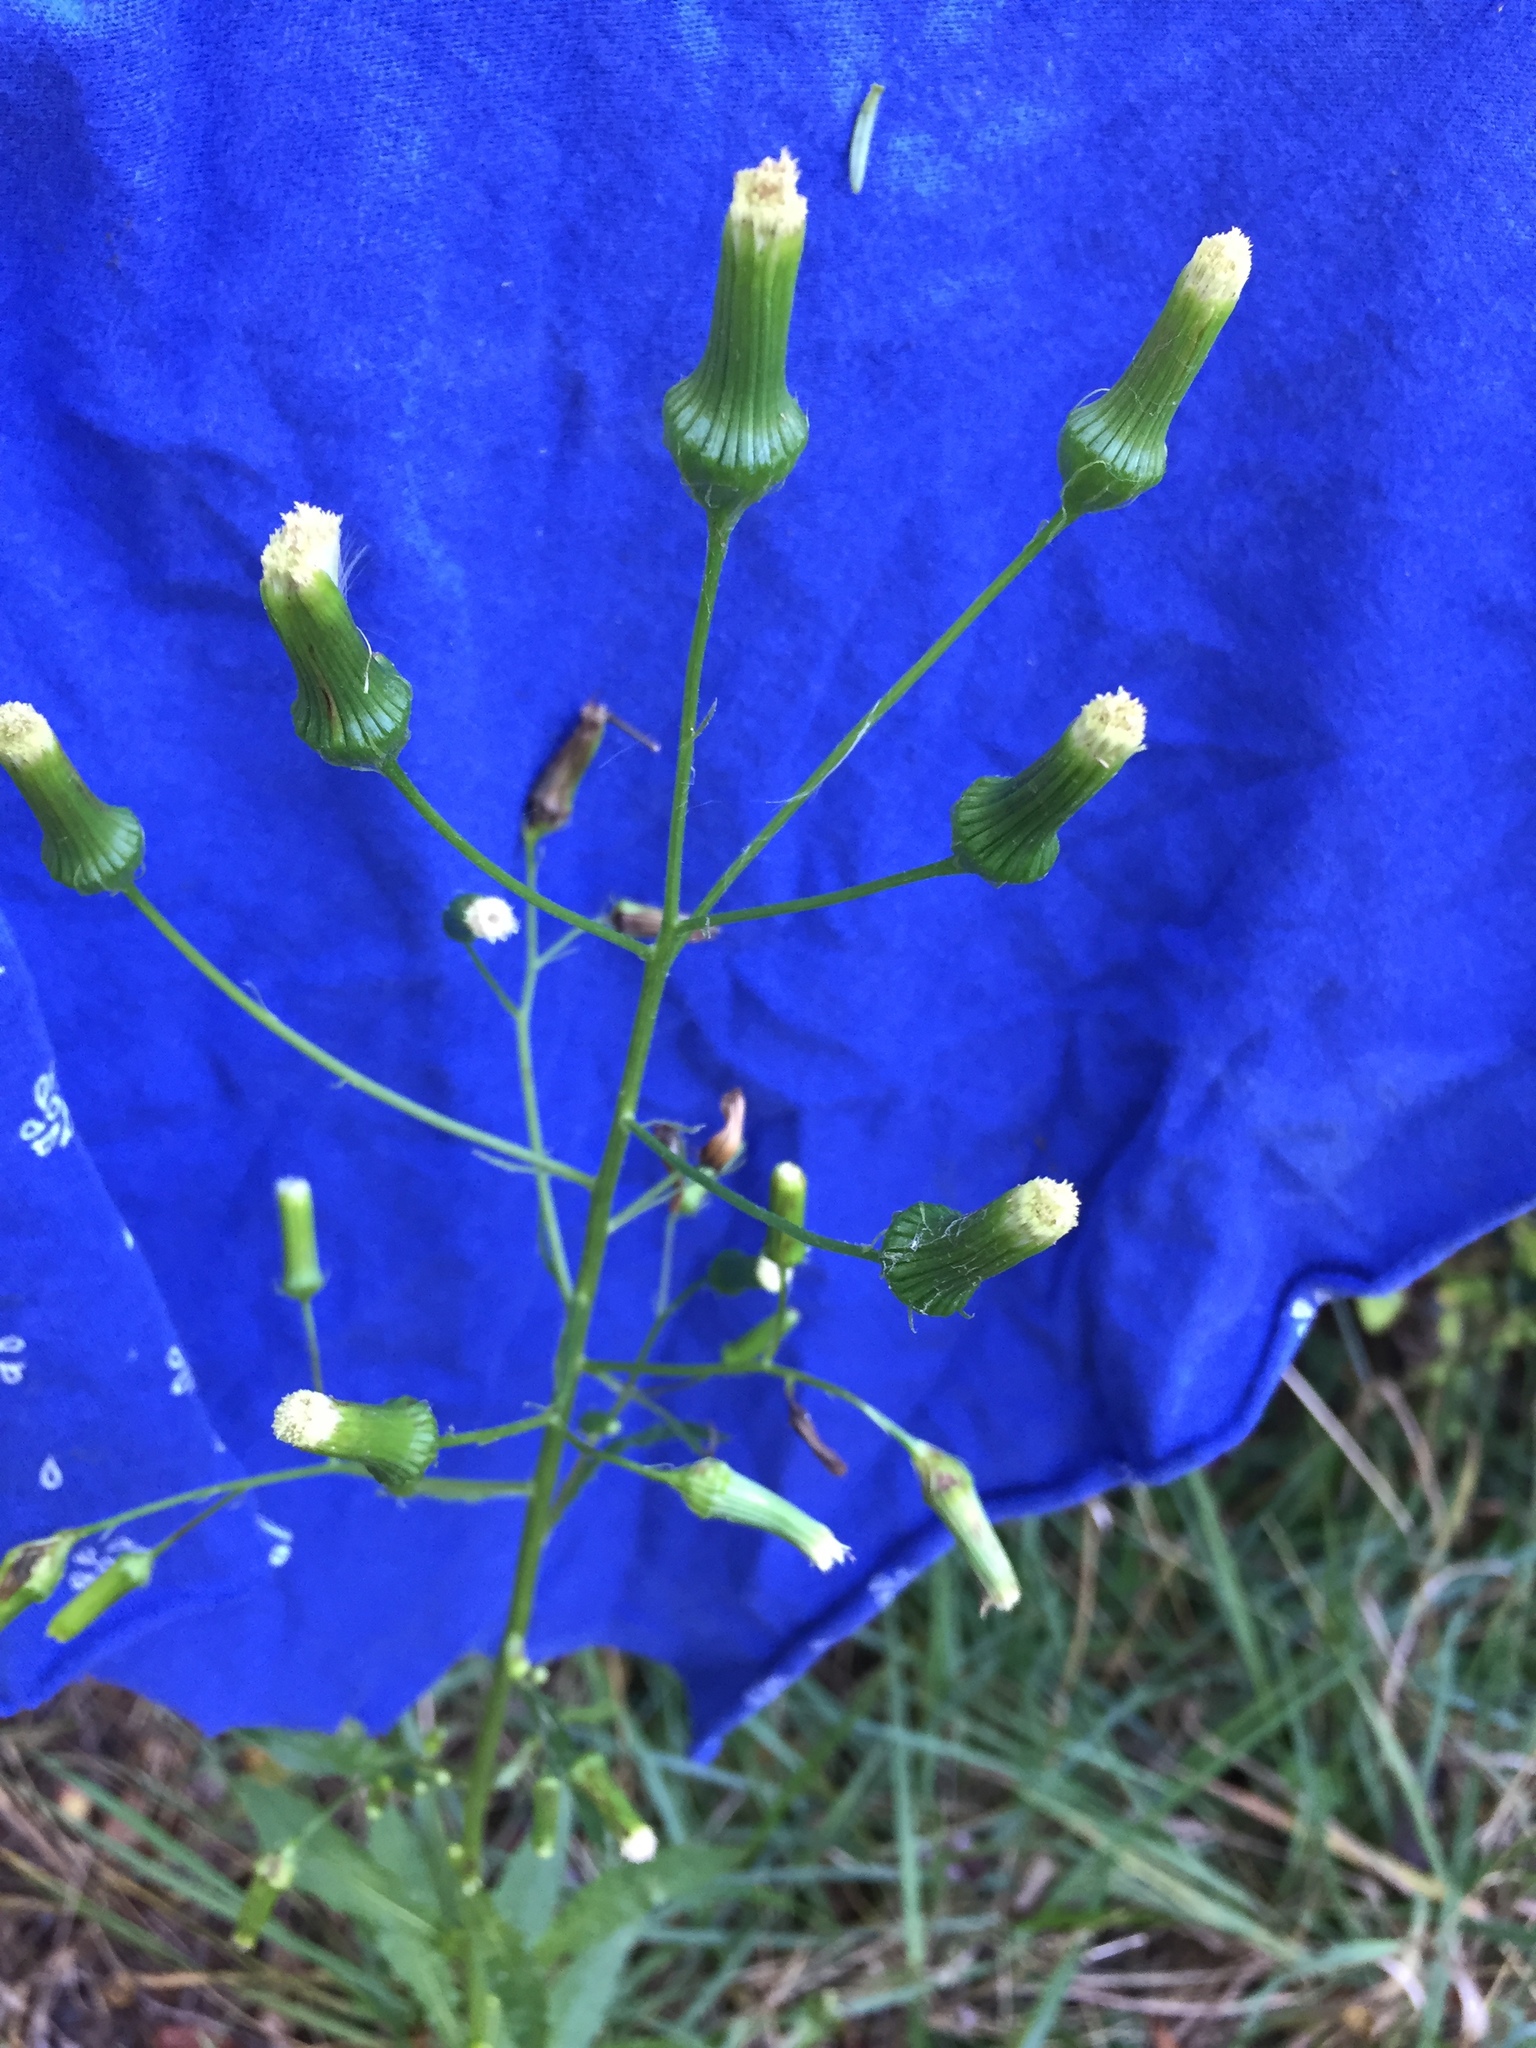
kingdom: Plantae
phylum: Tracheophyta
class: Magnoliopsida
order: Asterales
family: Asteraceae
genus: Erechtites
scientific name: Erechtites hieraciifolius
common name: American burnweed
